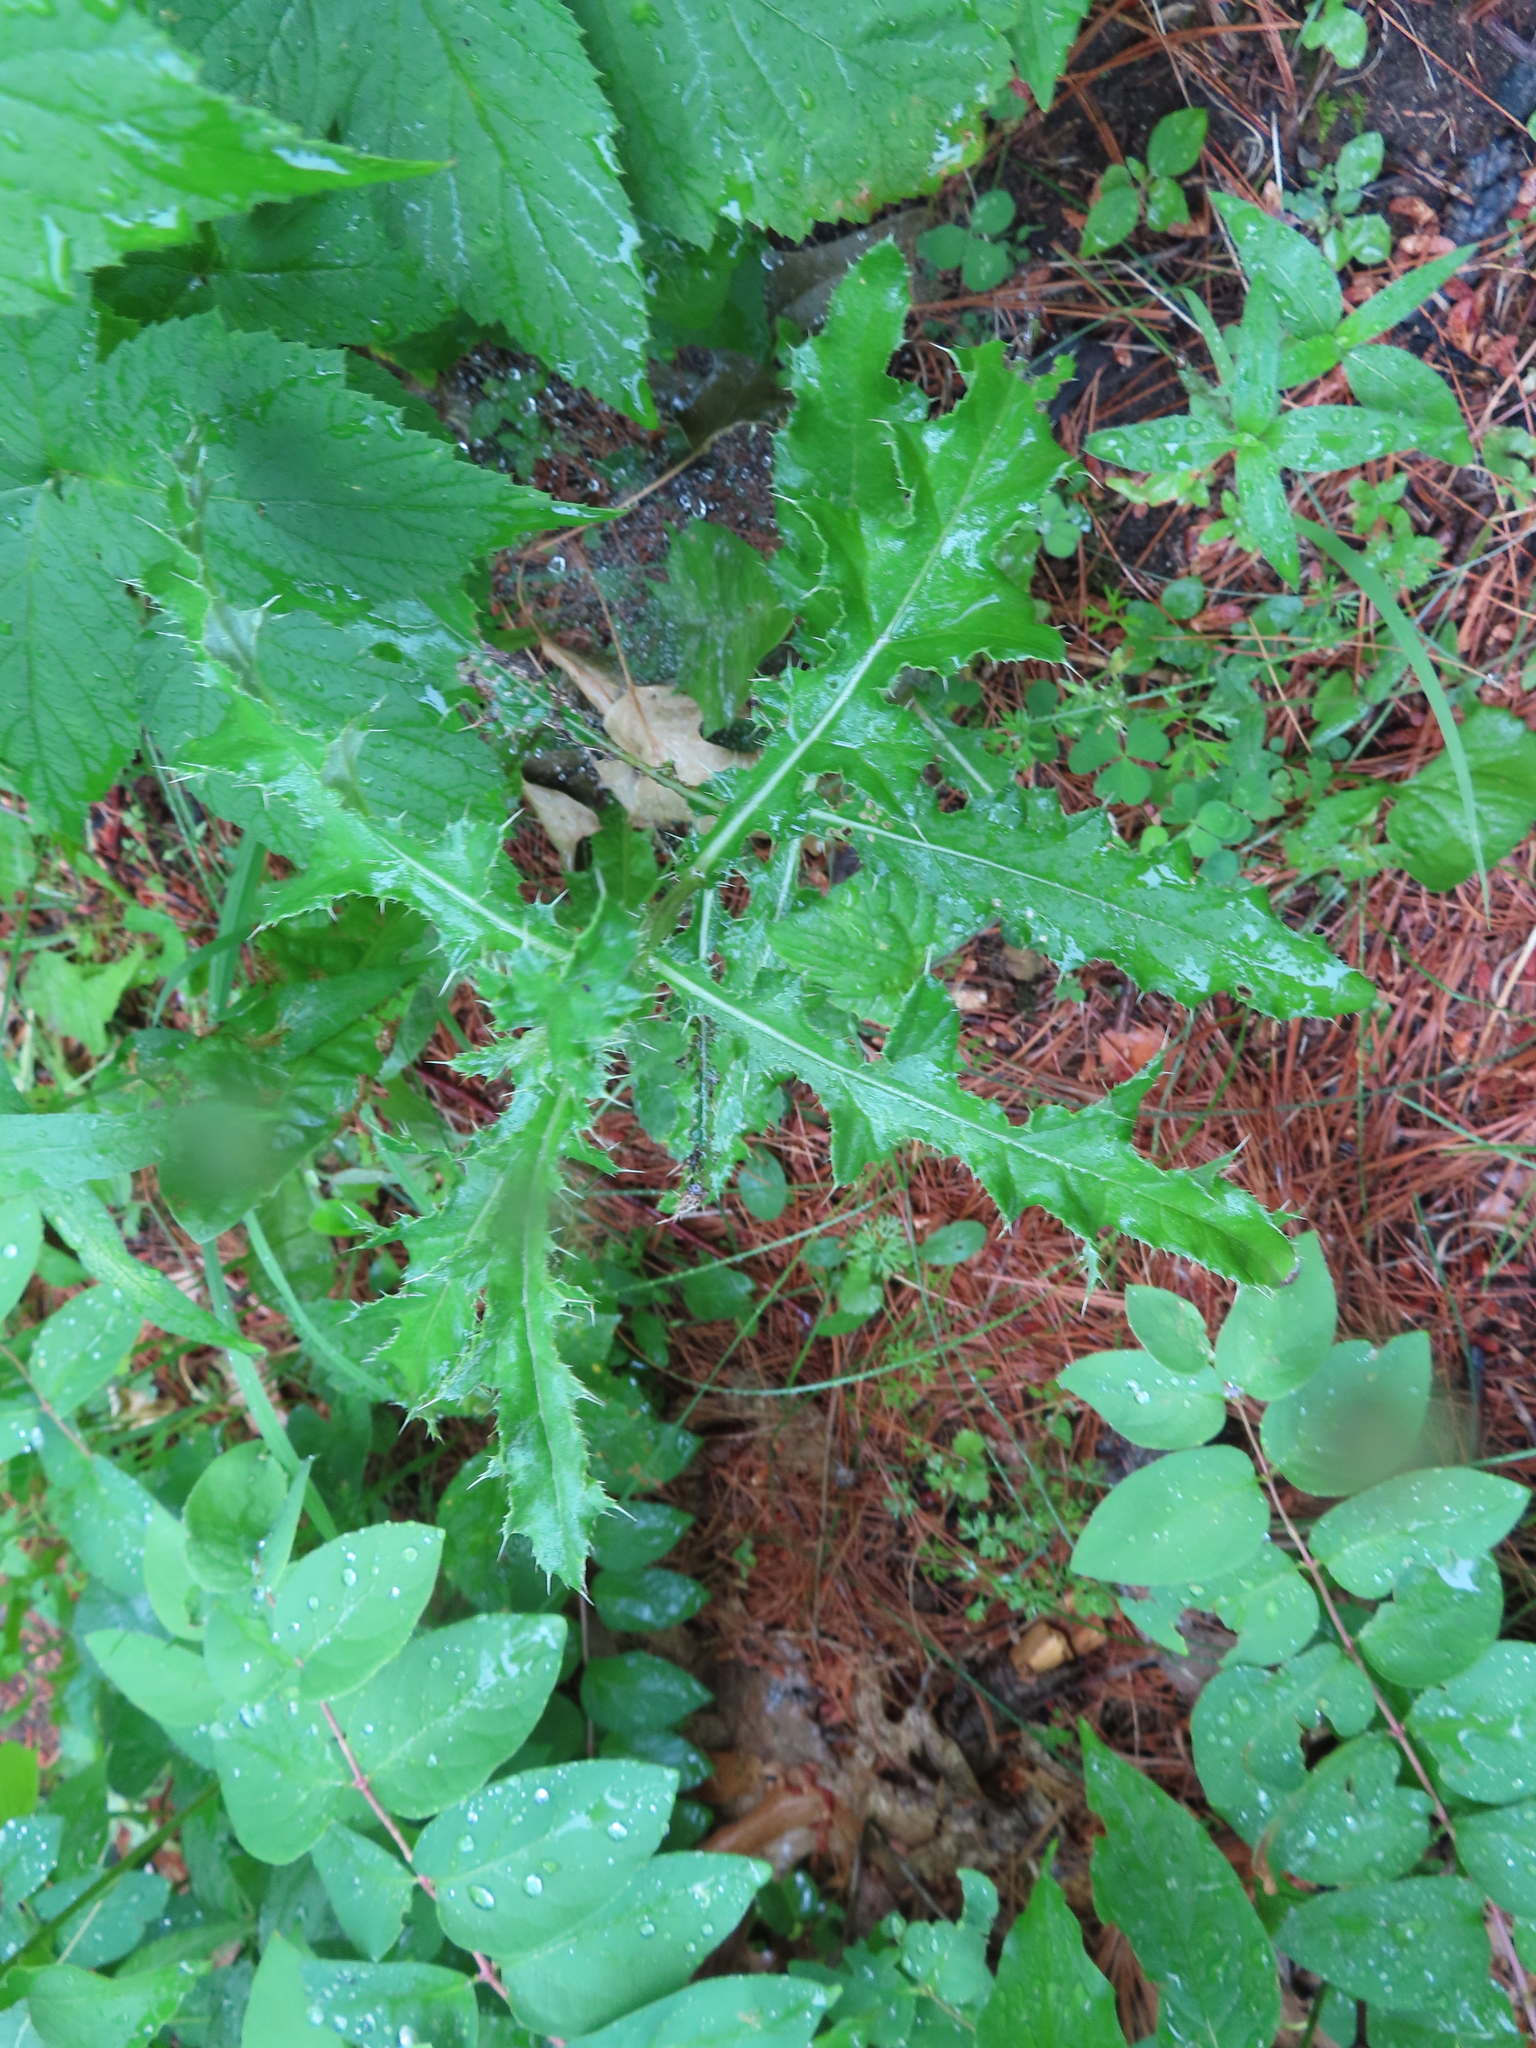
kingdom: Plantae
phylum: Tracheophyta
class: Magnoliopsida
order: Asterales
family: Asteraceae
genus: Cirsium
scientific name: Cirsium arvense
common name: Creeping thistle
